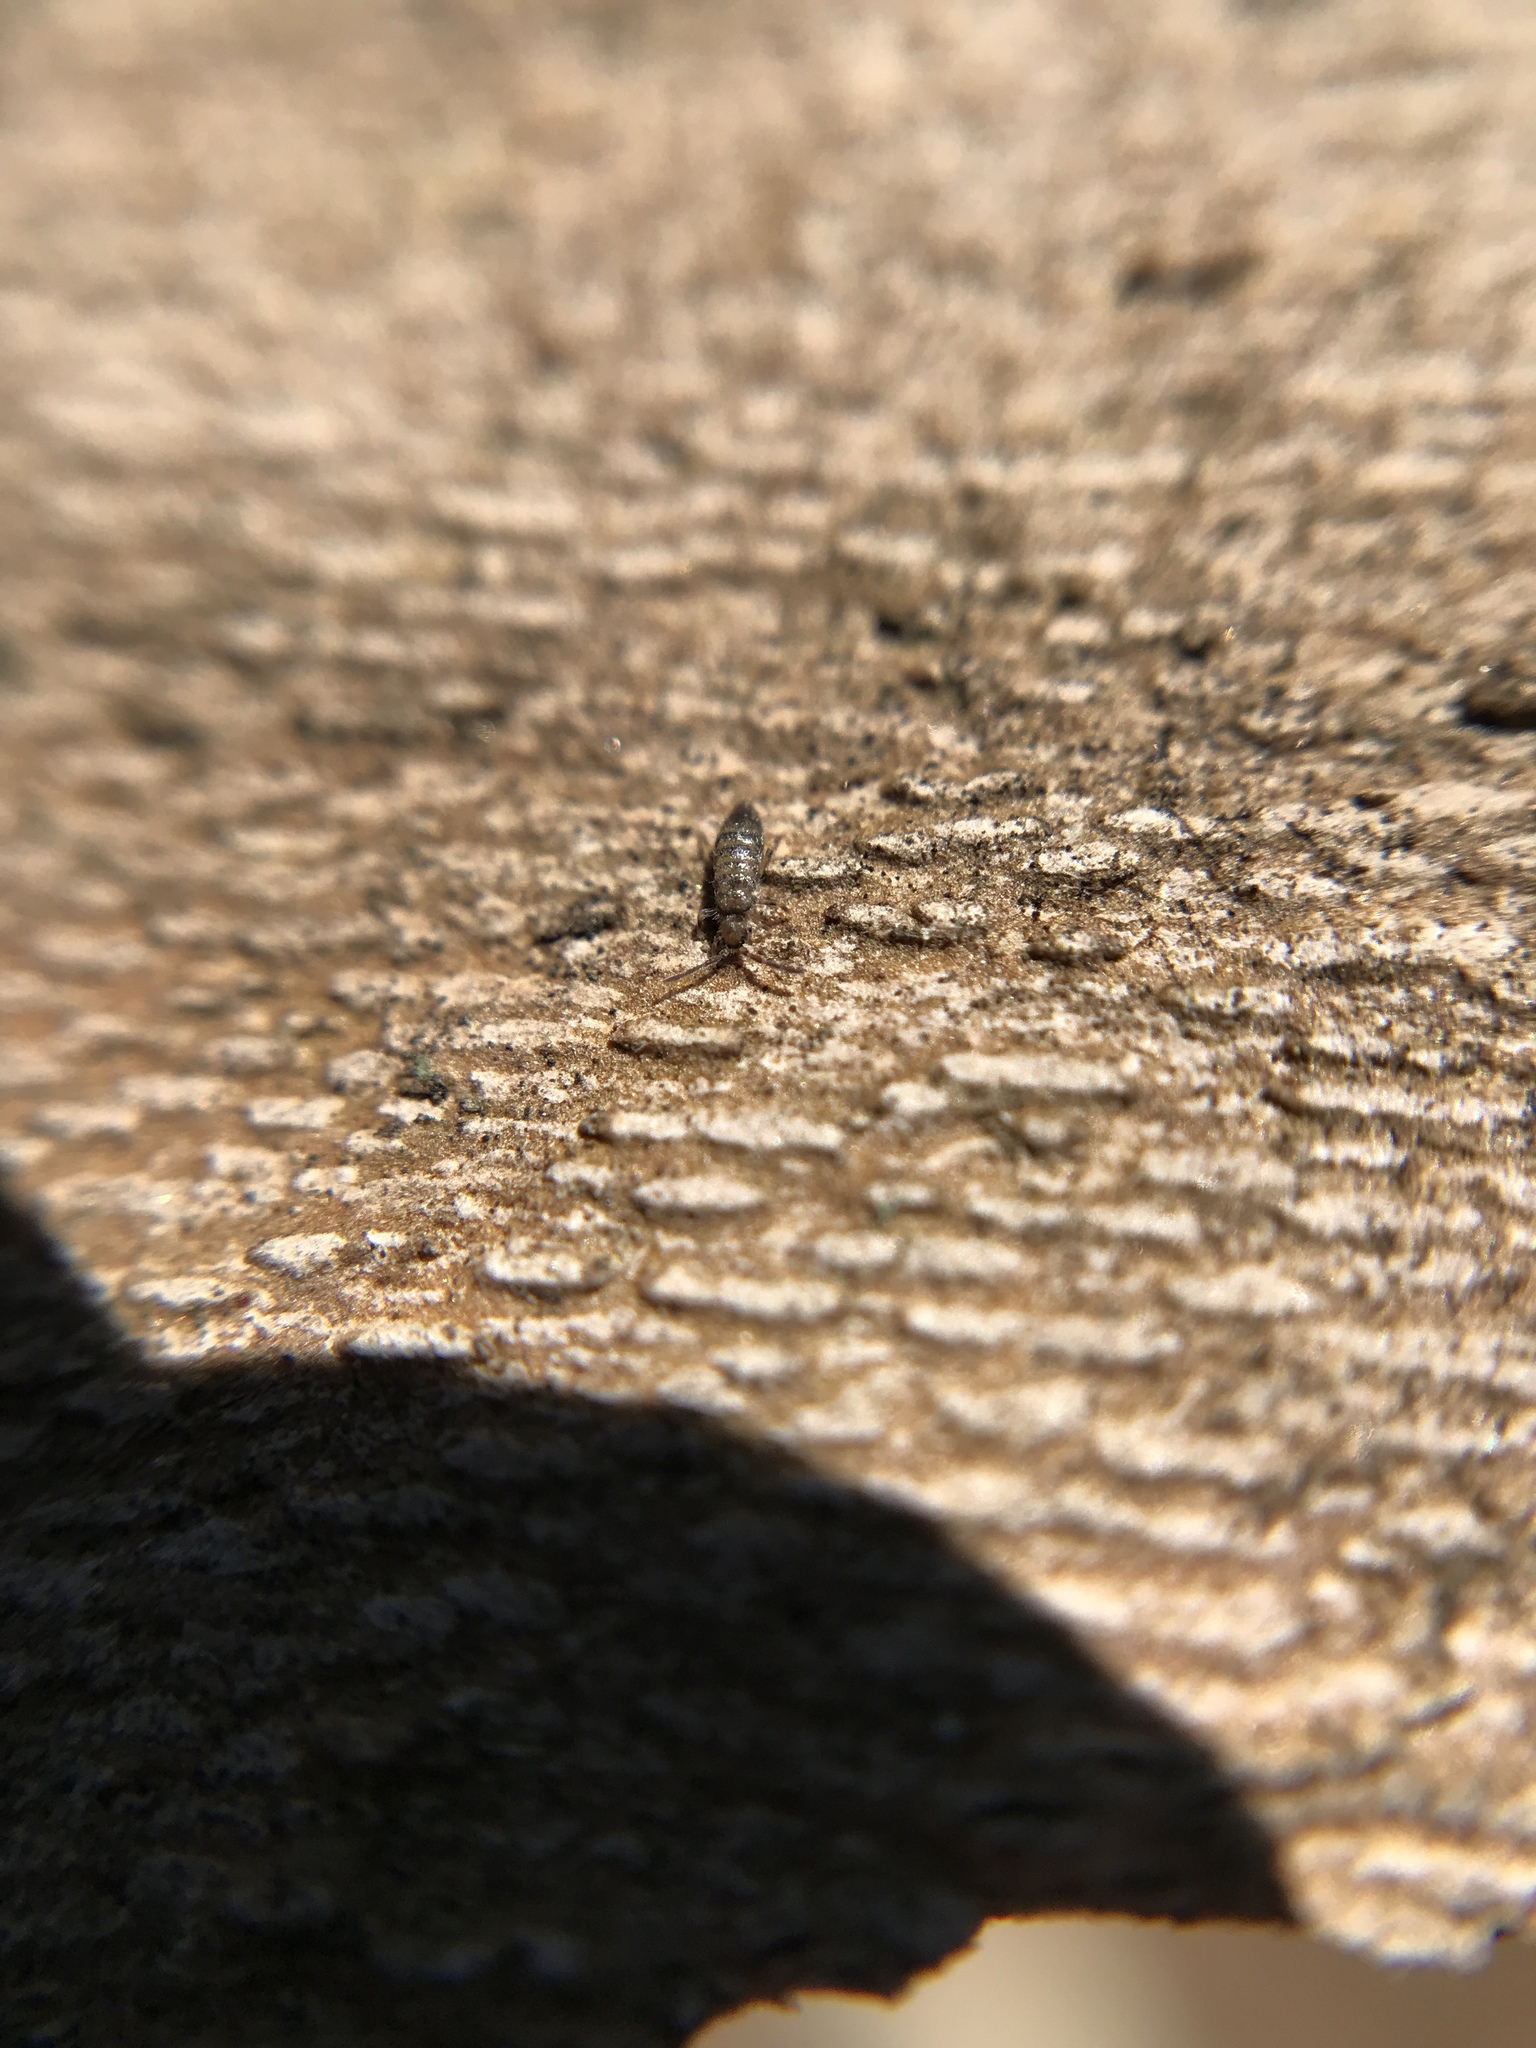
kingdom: Animalia
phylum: Arthropoda
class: Collembola
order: Entomobryomorpha
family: Entomobryidae
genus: Willowsia
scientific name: Willowsia buski
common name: Damp grain springtail
